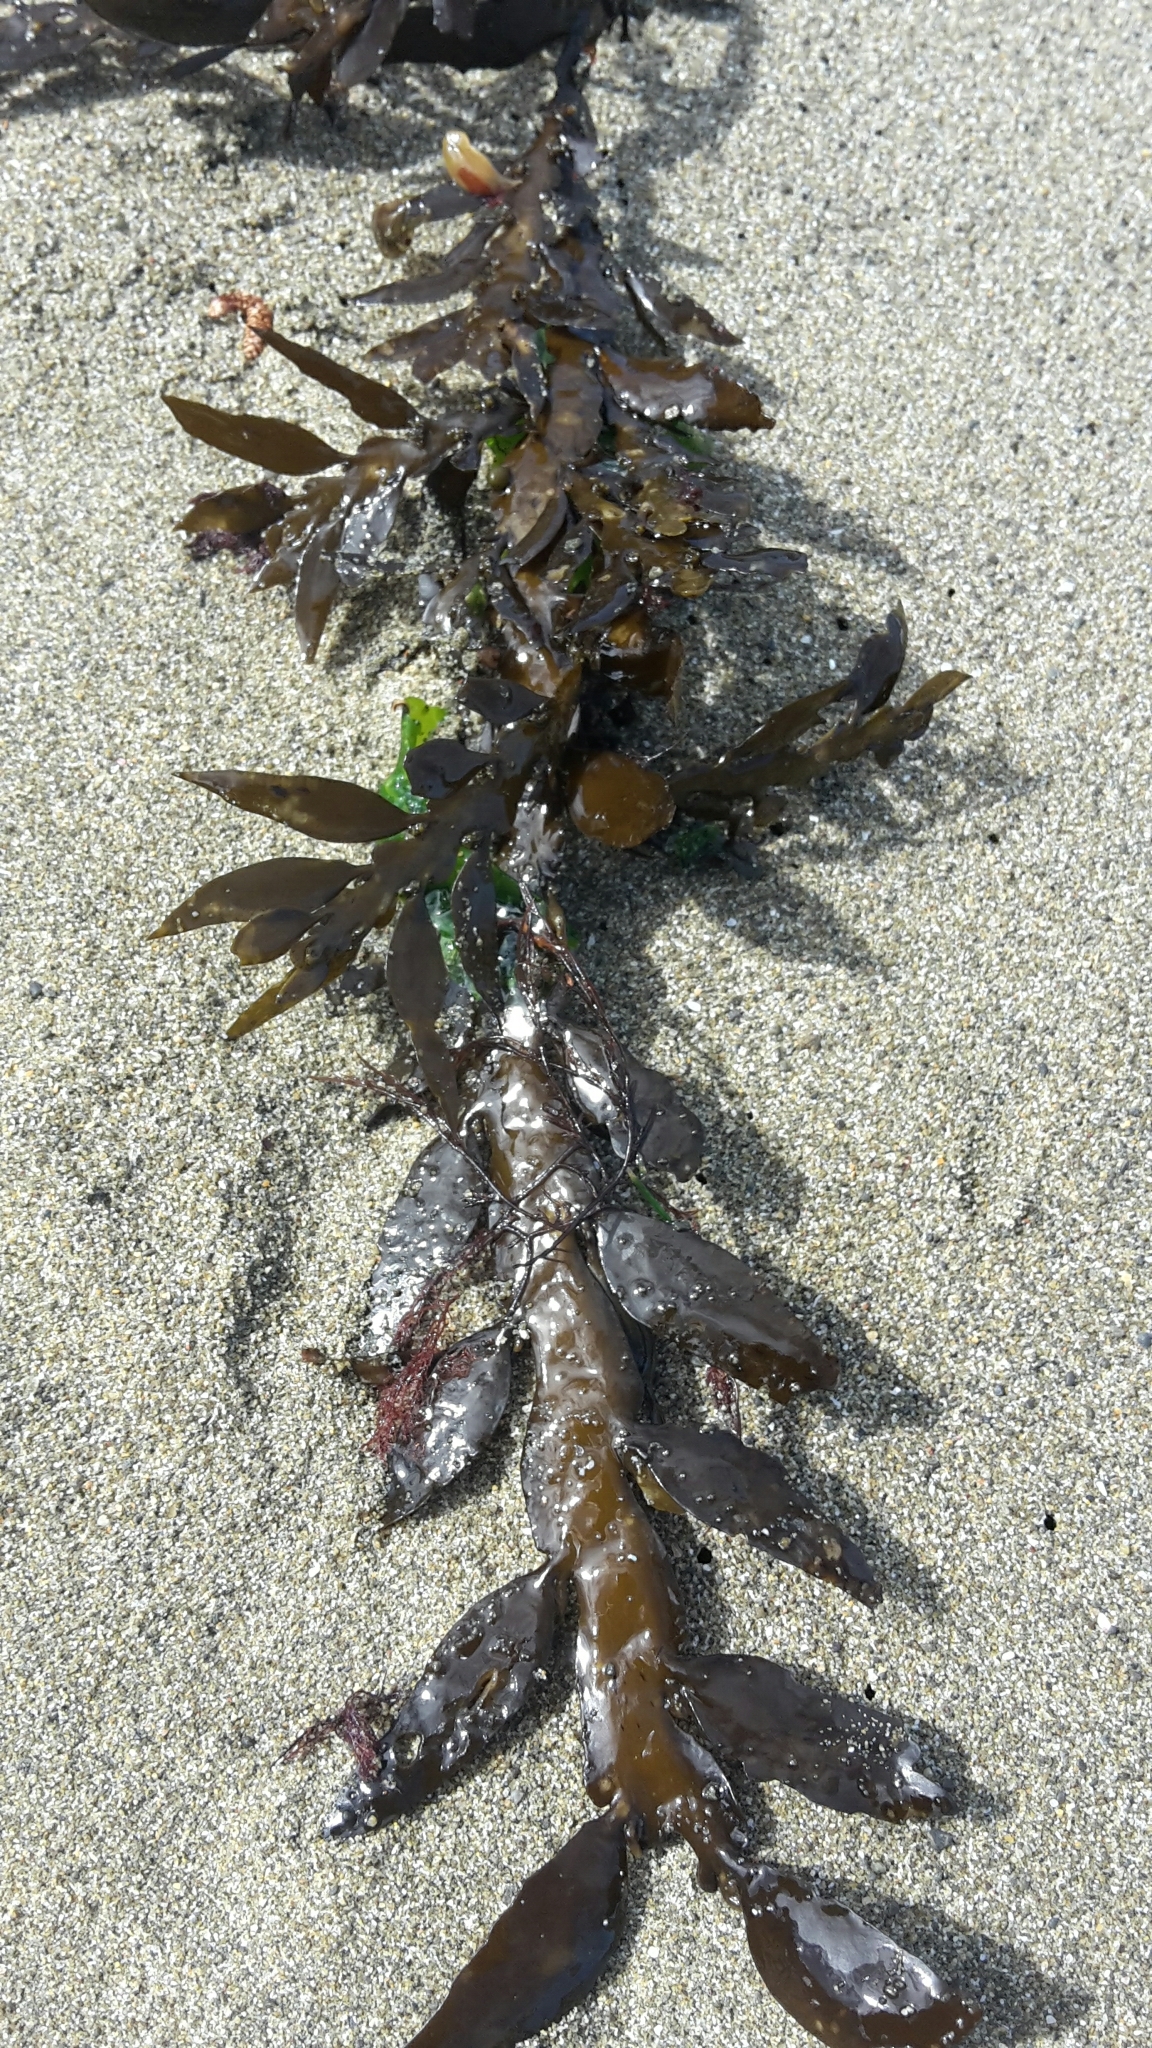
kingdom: Chromista
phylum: Ochrophyta
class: Phaeophyceae
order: Fucales
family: Sargassaceae
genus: Carpophyllum
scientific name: Carpophyllum maschalocarpum
